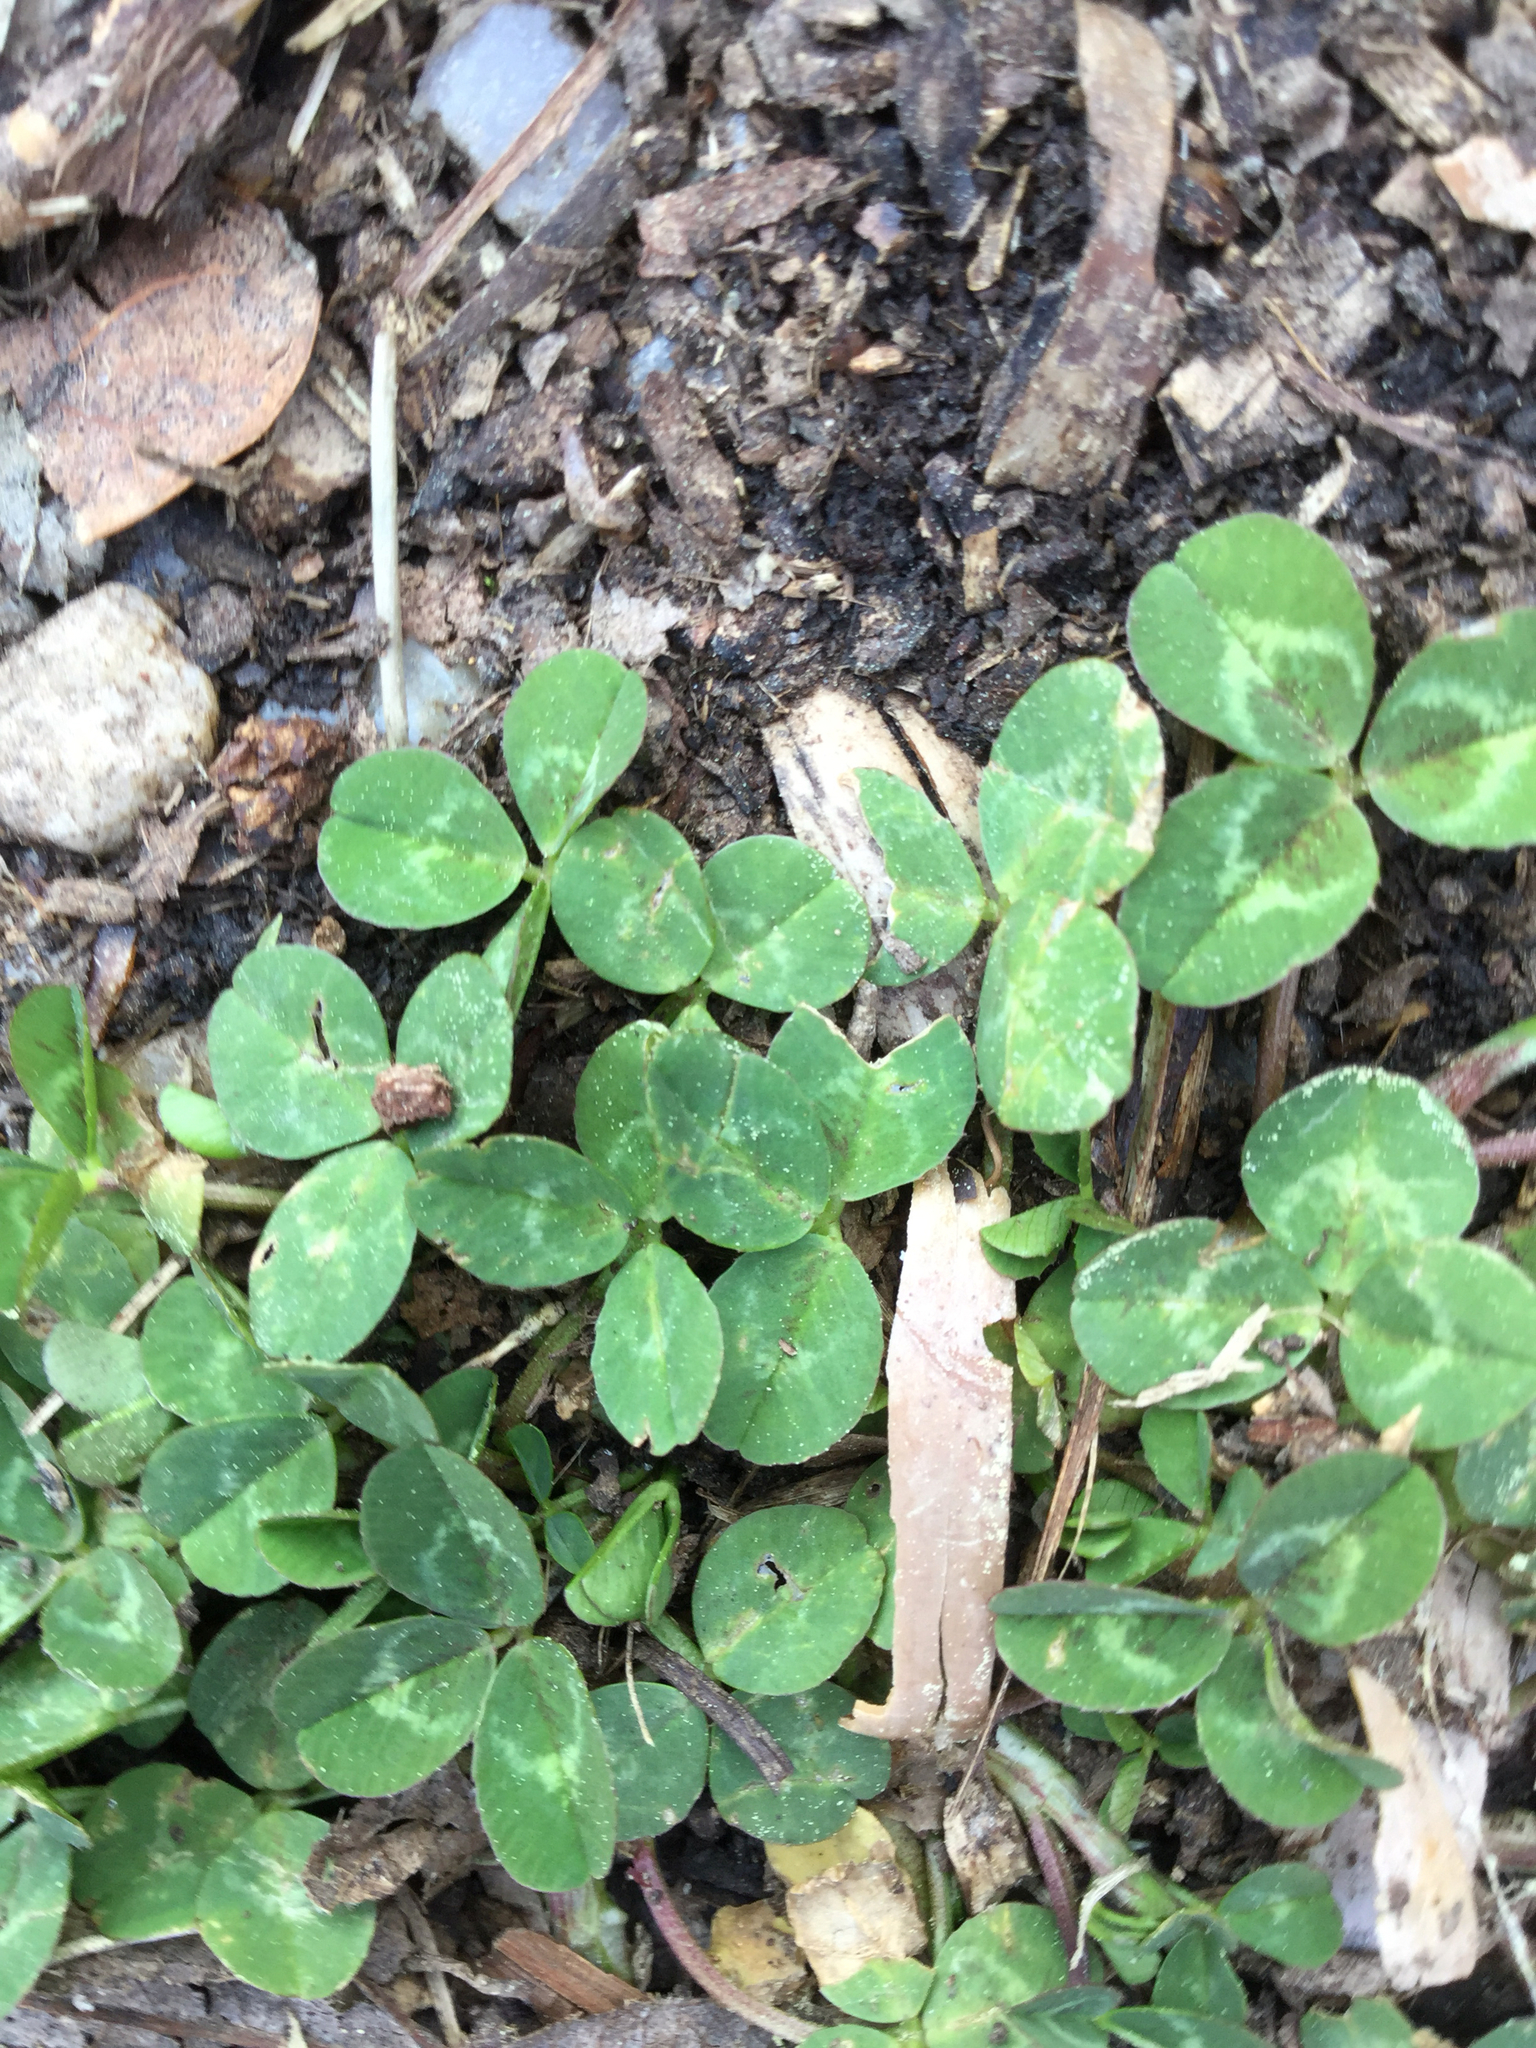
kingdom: Plantae
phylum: Tracheophyta
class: Magnoliopsida
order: Fabales
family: Fabaceae
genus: Trifolium
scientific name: Trifolium repens
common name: White clover
